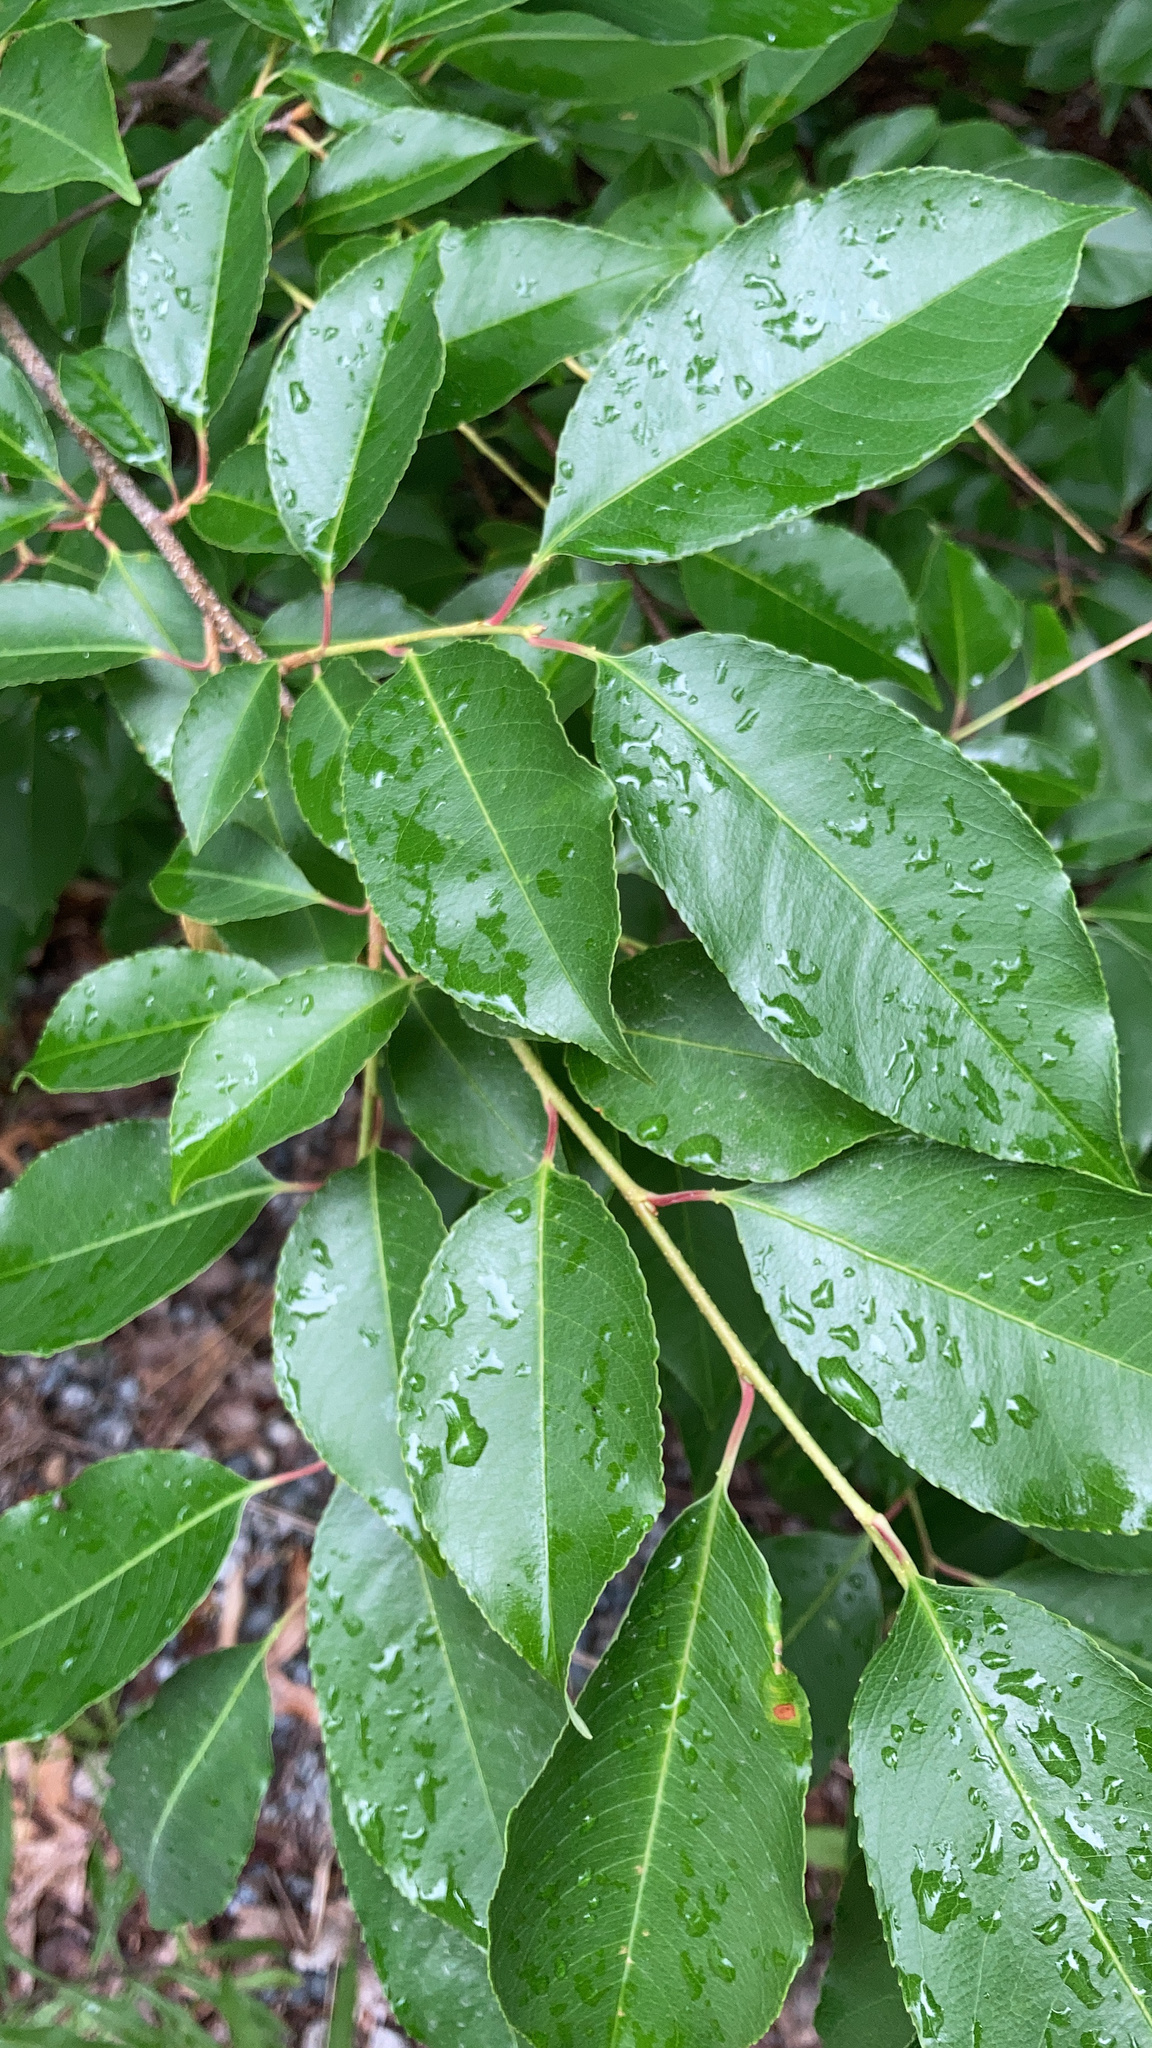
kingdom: Plantae
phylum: Tracheophyta
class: Magnoliopsida
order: Rosales
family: Rosaceae
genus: Prunus
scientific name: Prunus serotina
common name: Black cherry
